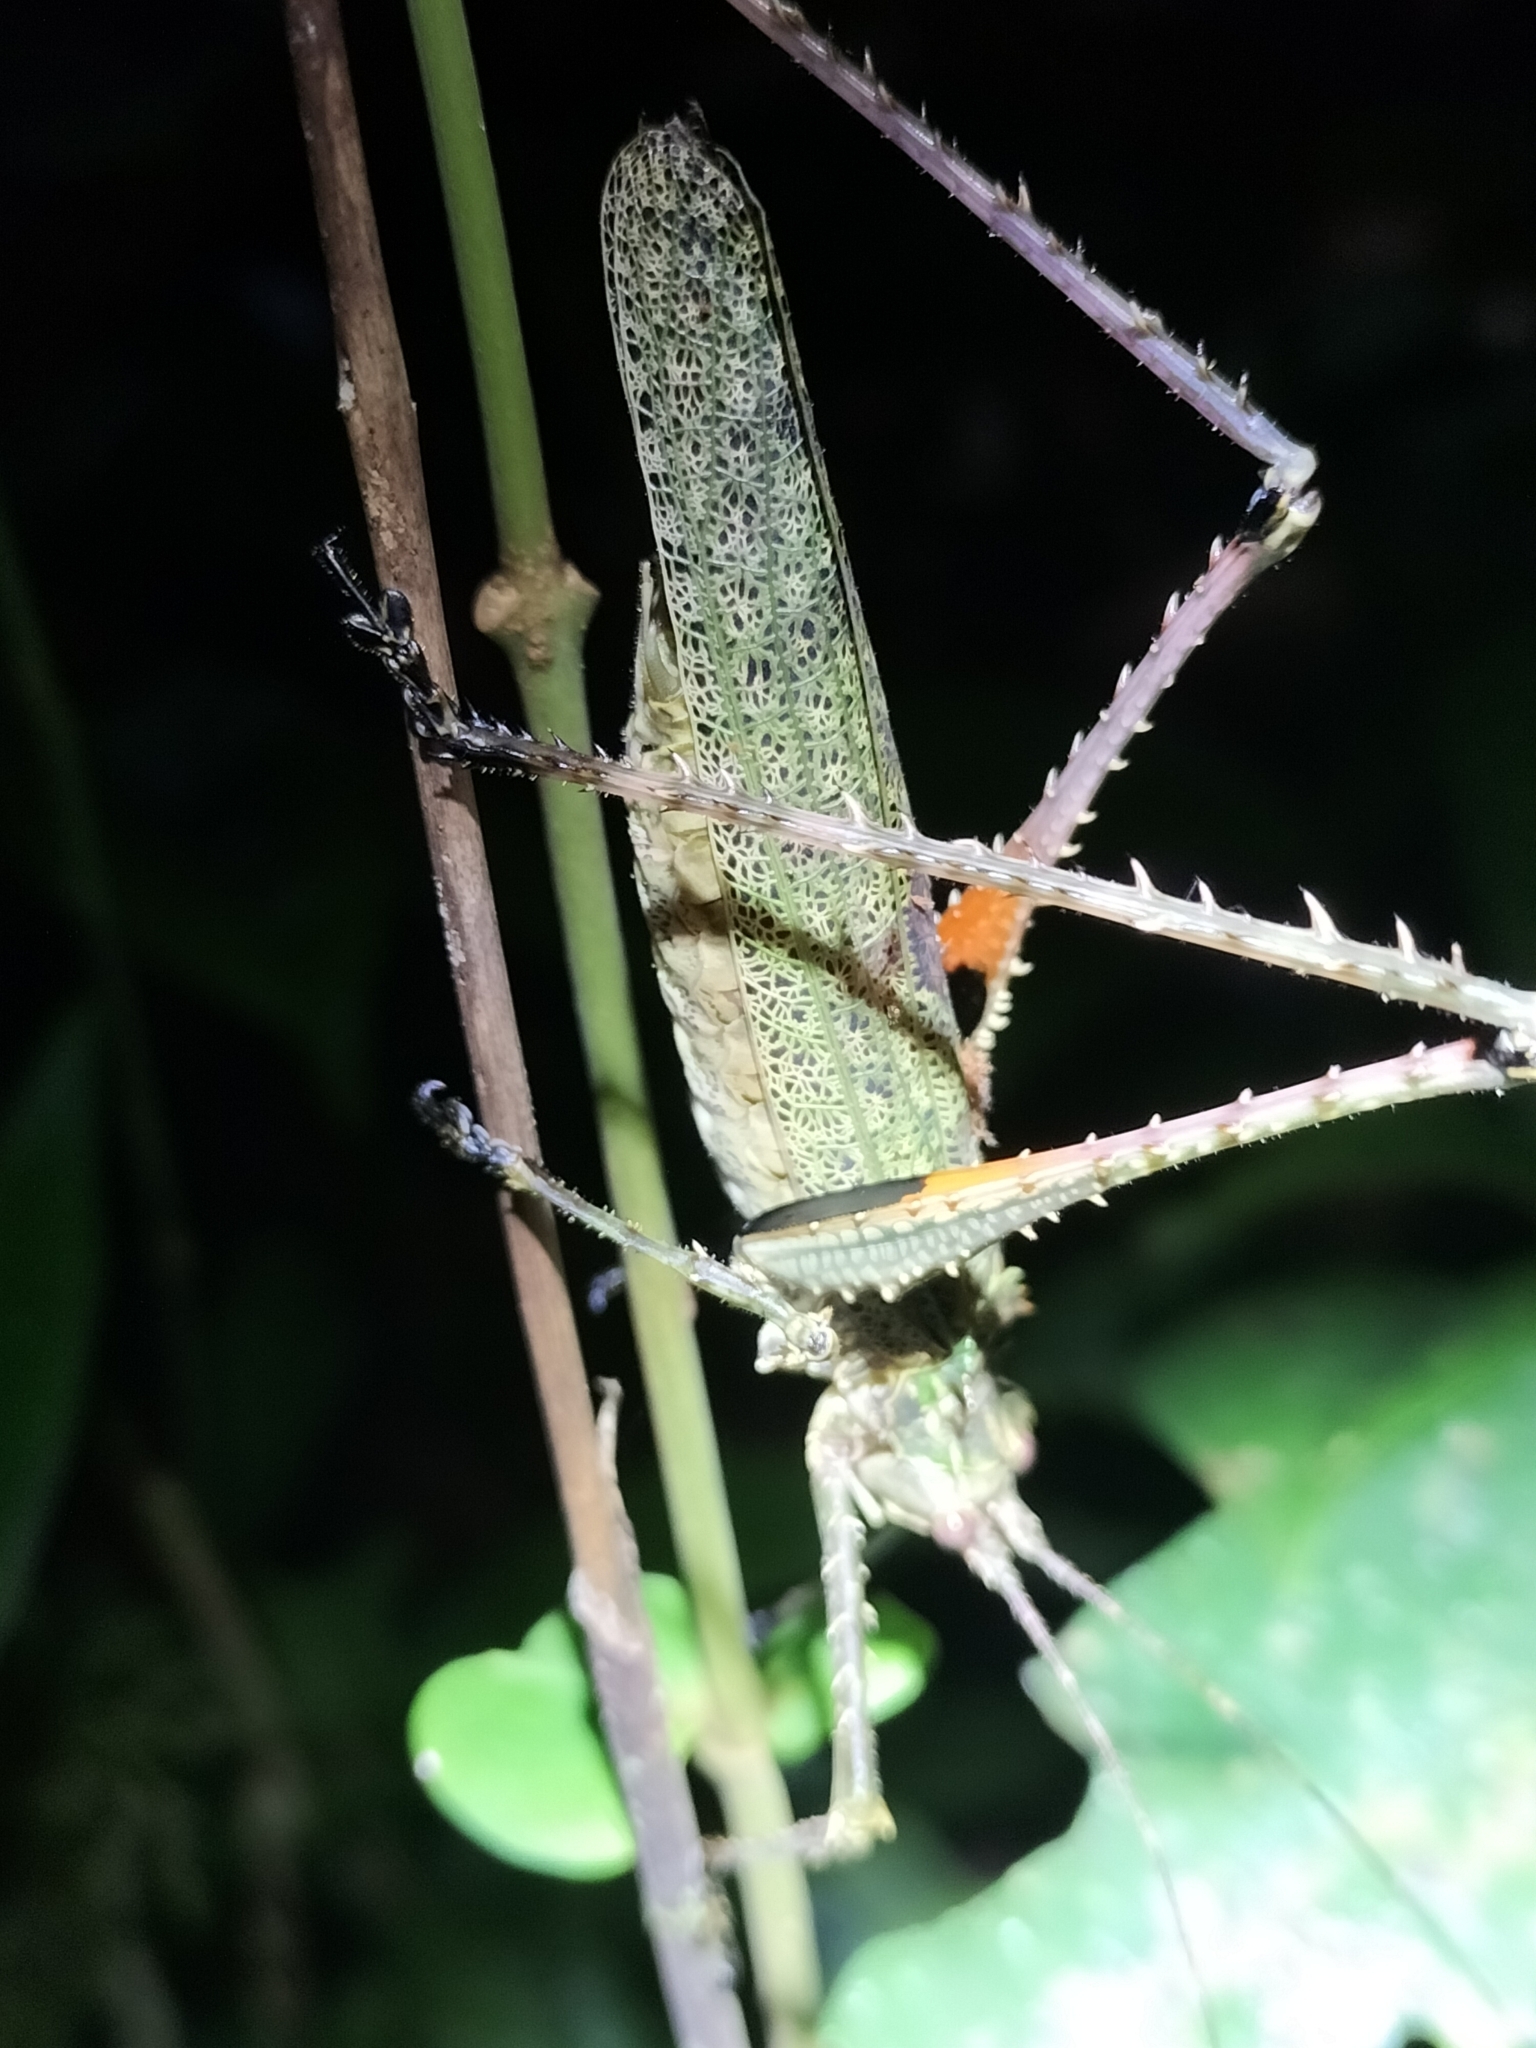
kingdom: Animalia
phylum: Arthropoda
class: Insecta
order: Orthoptera
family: Tettigoniidae
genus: Phricta
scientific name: Phricta spinosa
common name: Giant spiny forest katydid
